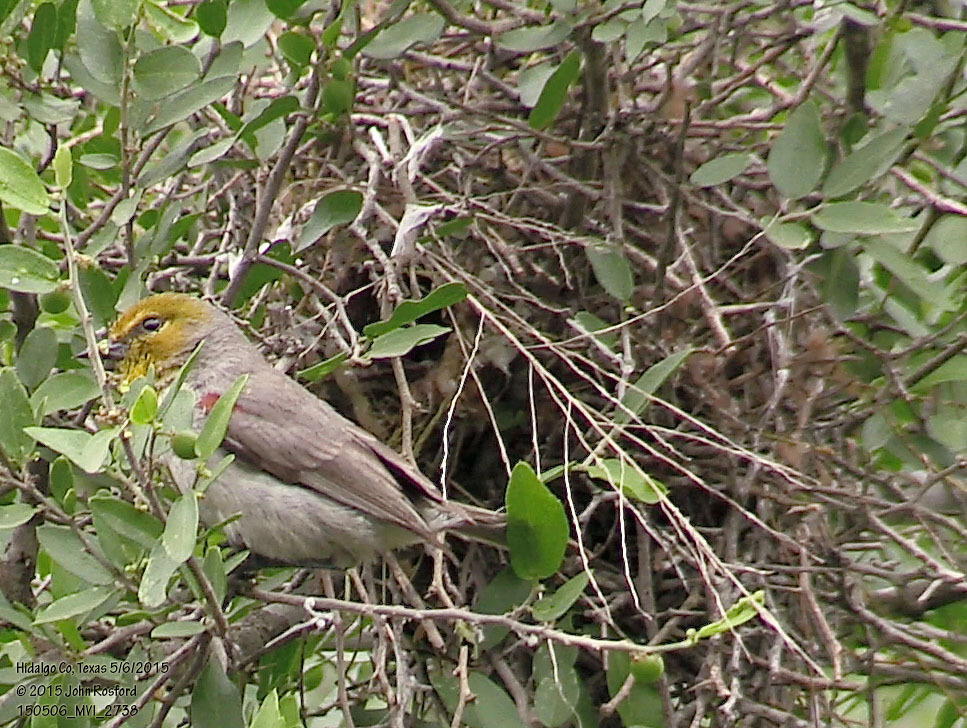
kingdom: Animalia
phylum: Chordata
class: Aves
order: Passeriformes
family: Remizidae
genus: Auriparus
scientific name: Auriparus flaviceps
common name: Verdin
